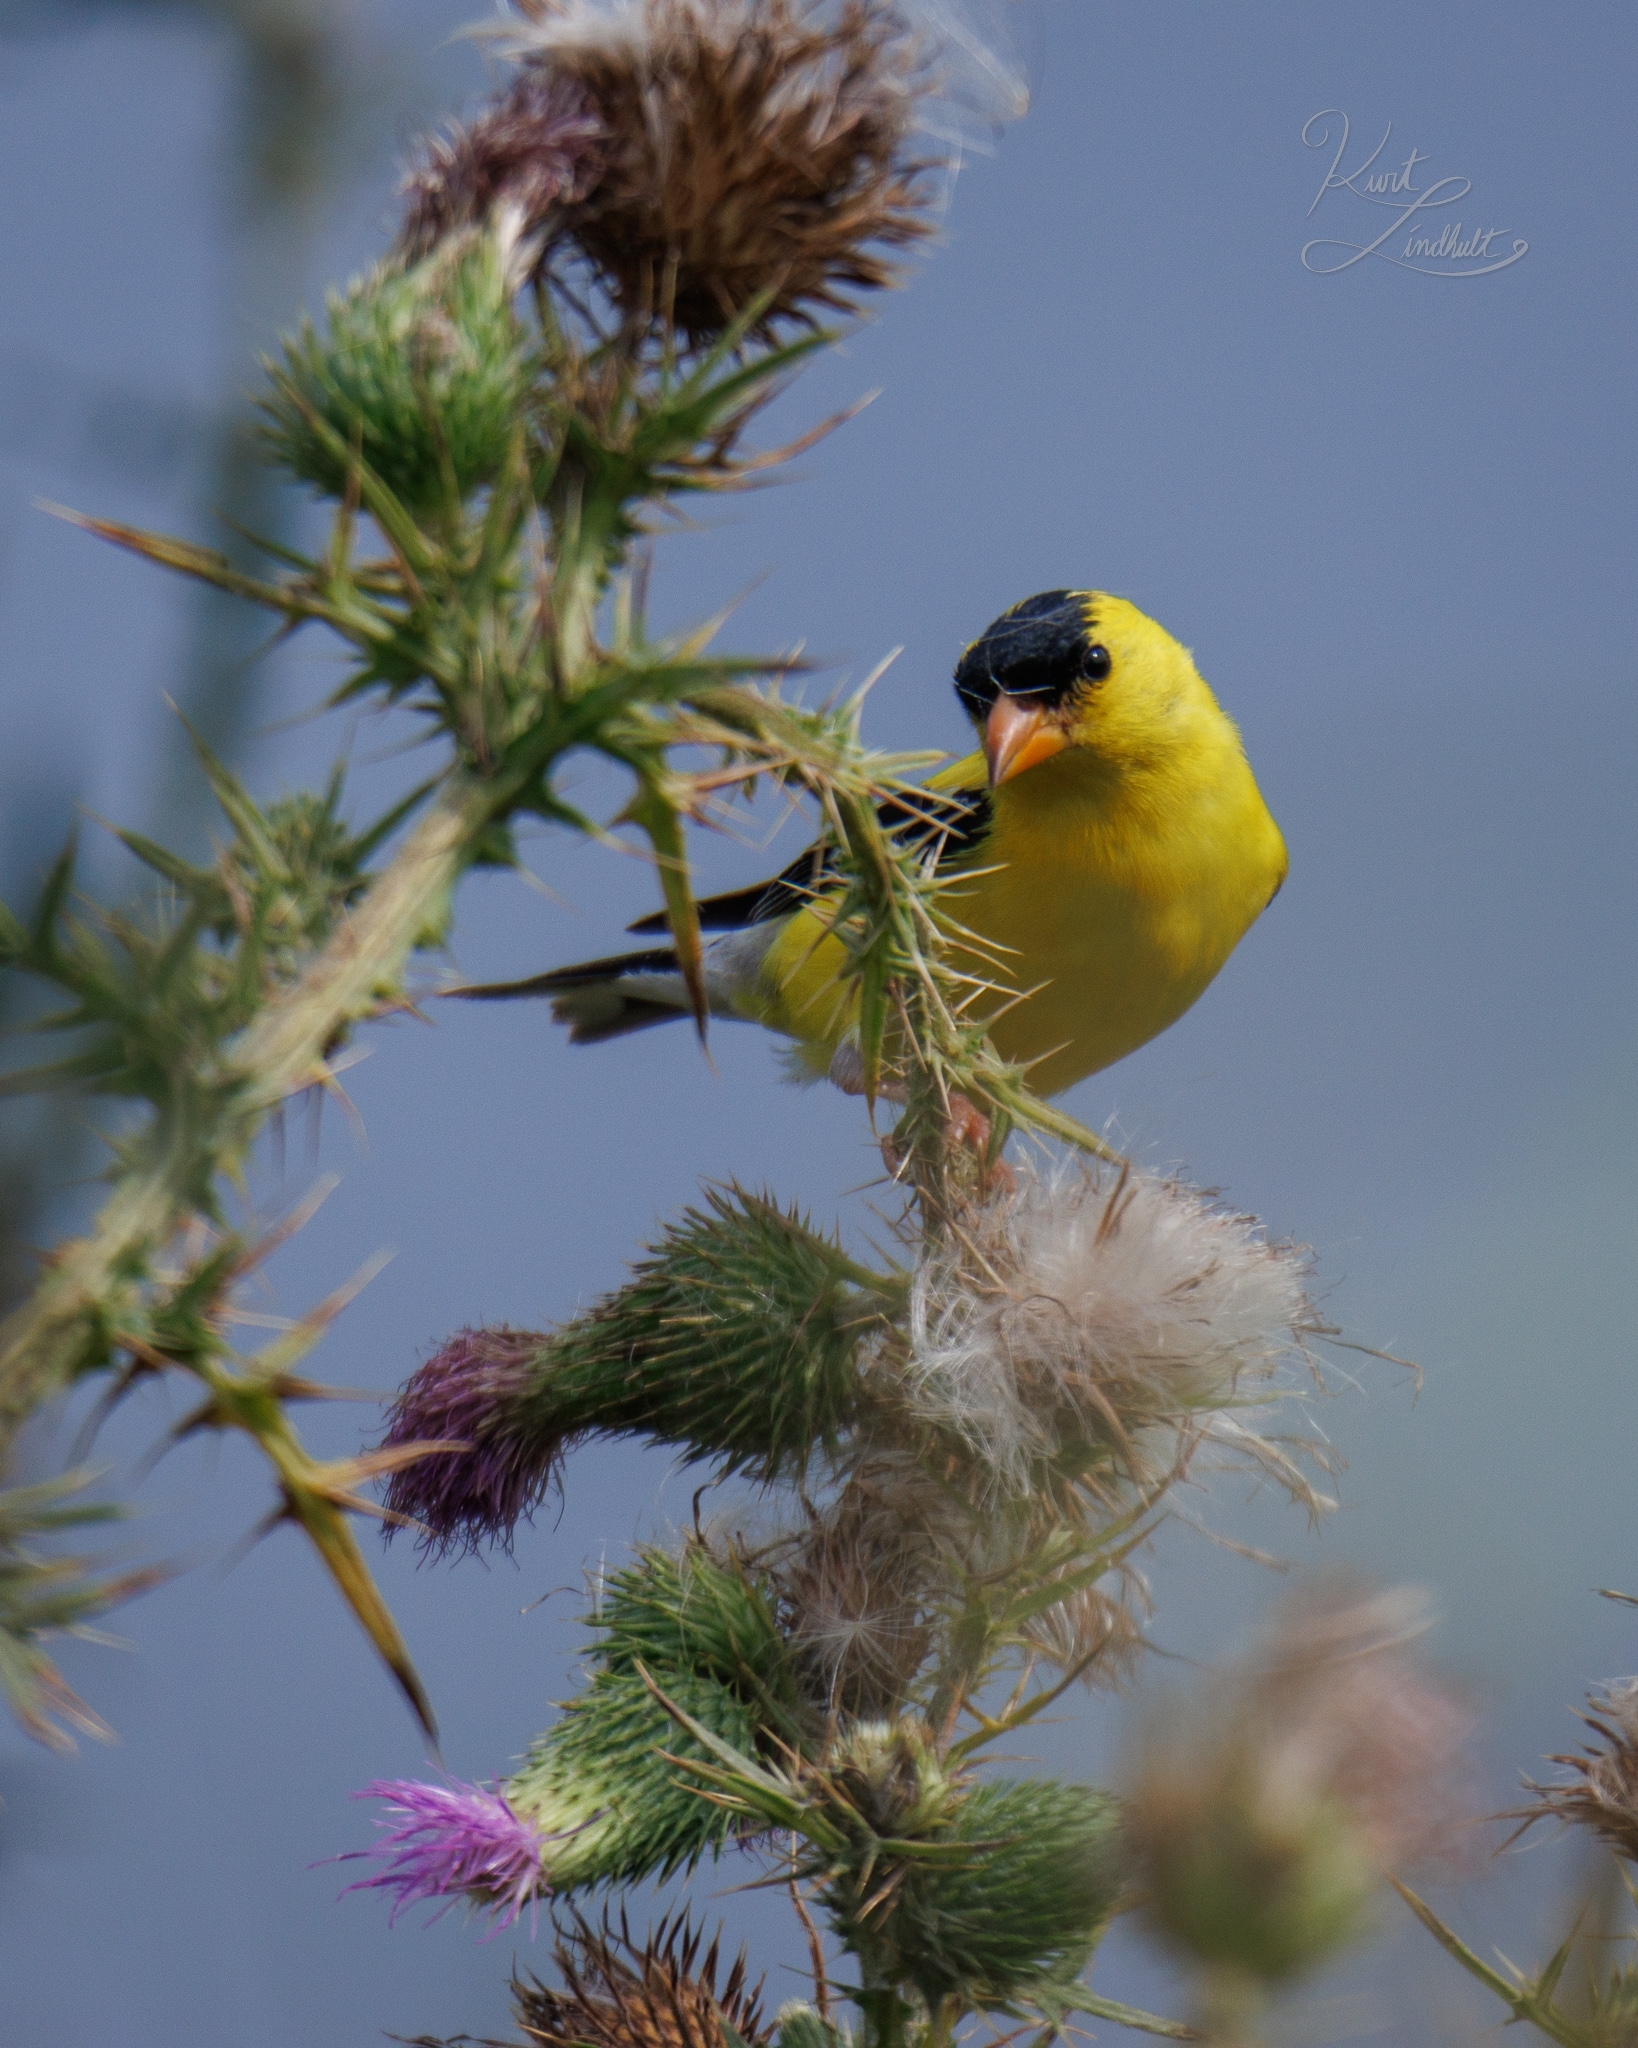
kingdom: Animalia
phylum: Chordata
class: Aves
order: Passeriformes
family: Fringillidae
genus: Spinus
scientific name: Spinus tristis
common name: American goldfinch
